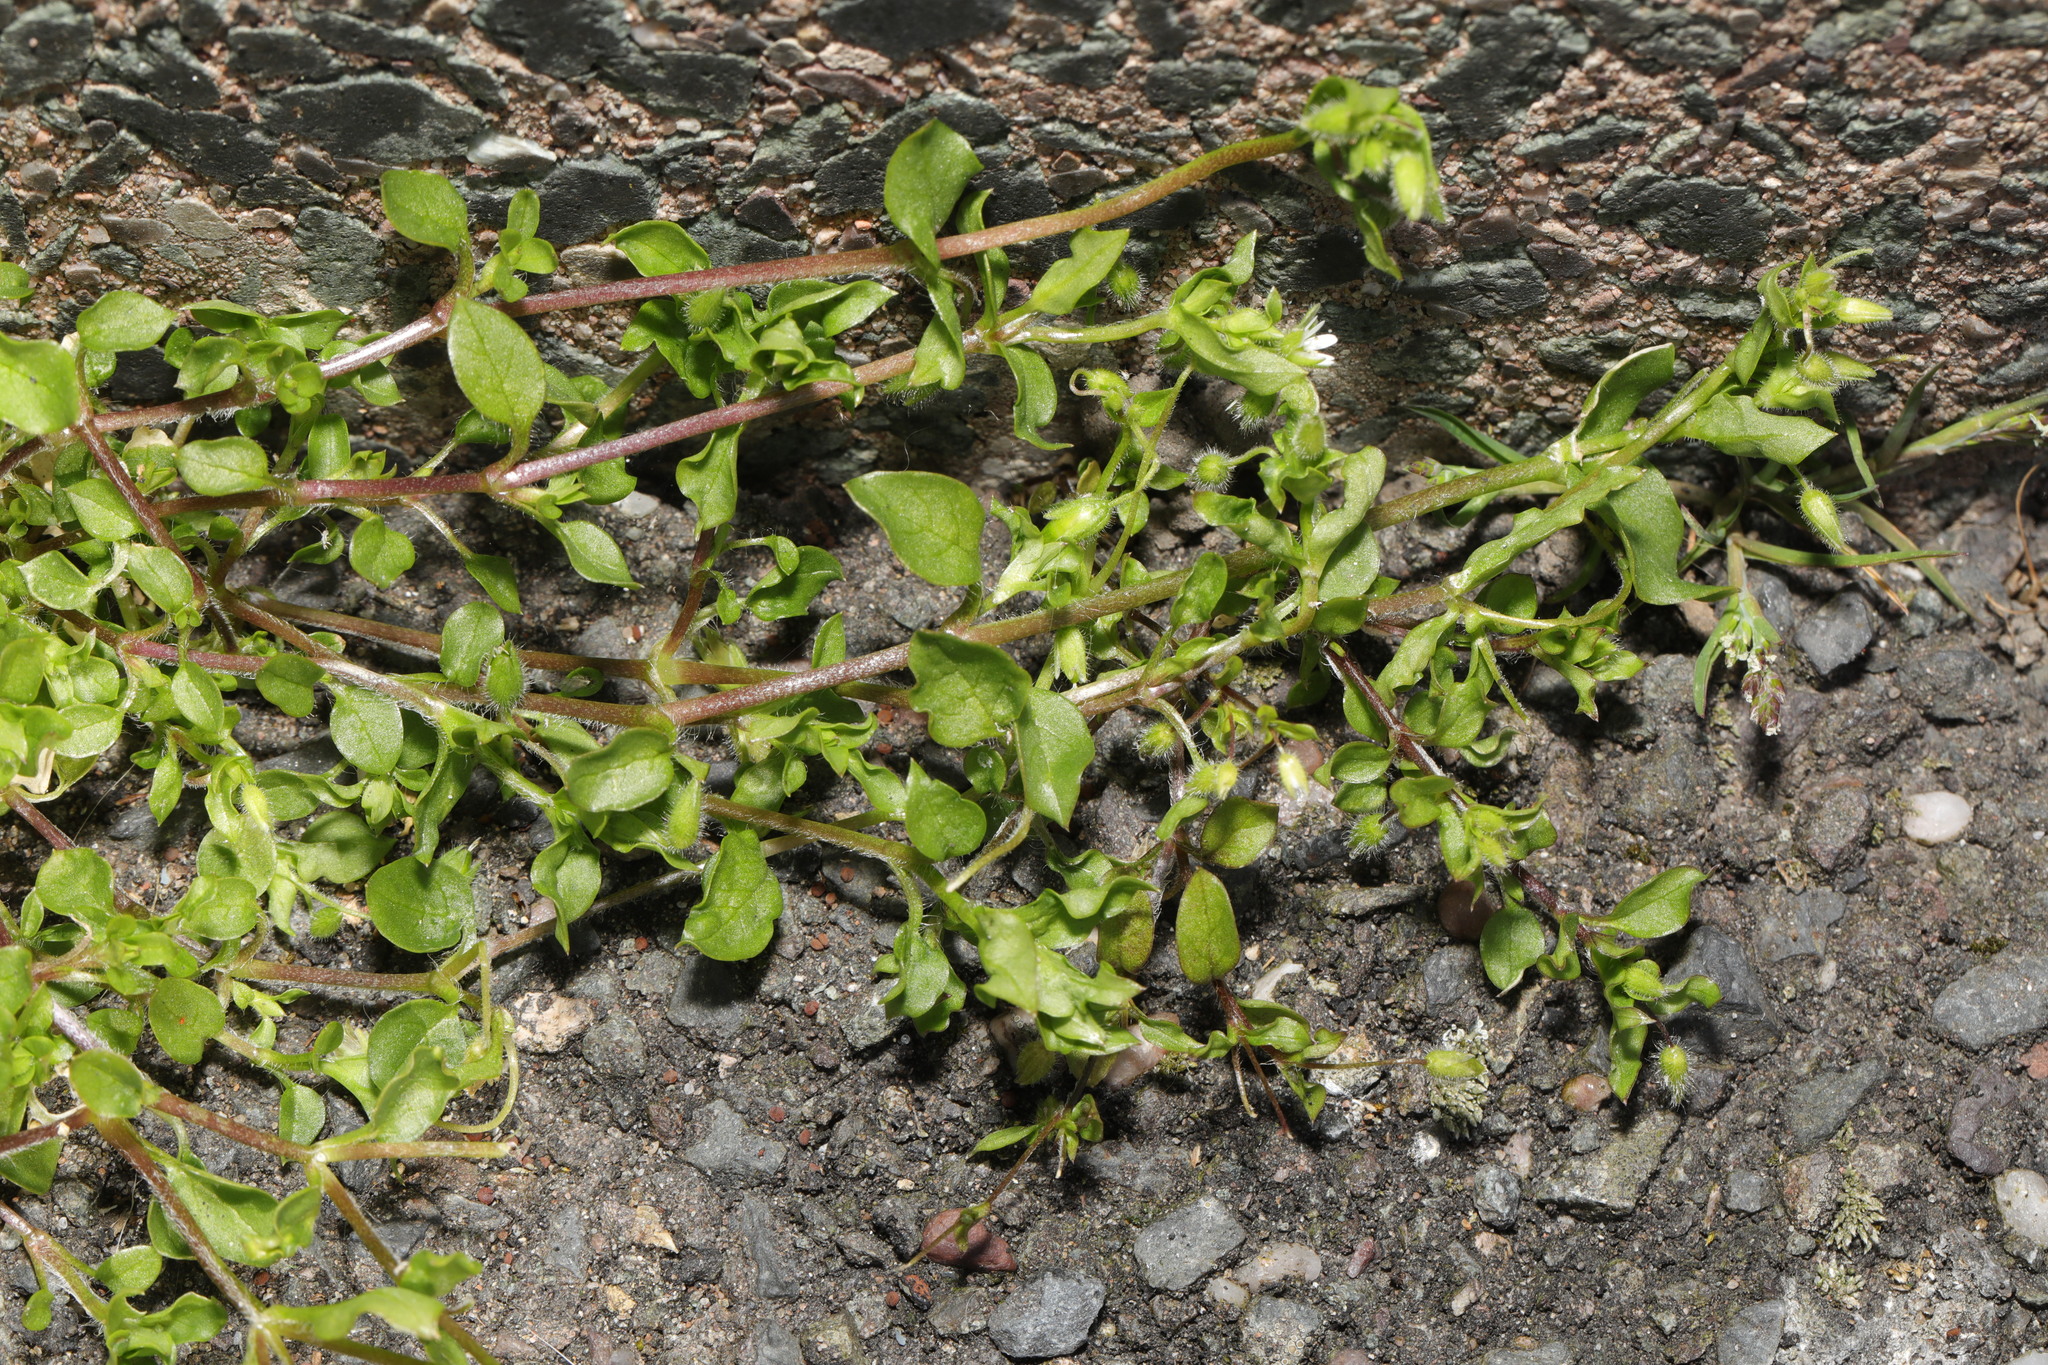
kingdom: Plantae
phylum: Tracheophyta
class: Magnoliopsida
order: Caryophyllales
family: Caryophyllaceae
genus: Stellaria
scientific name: Stellaria media
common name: Common chickweed
